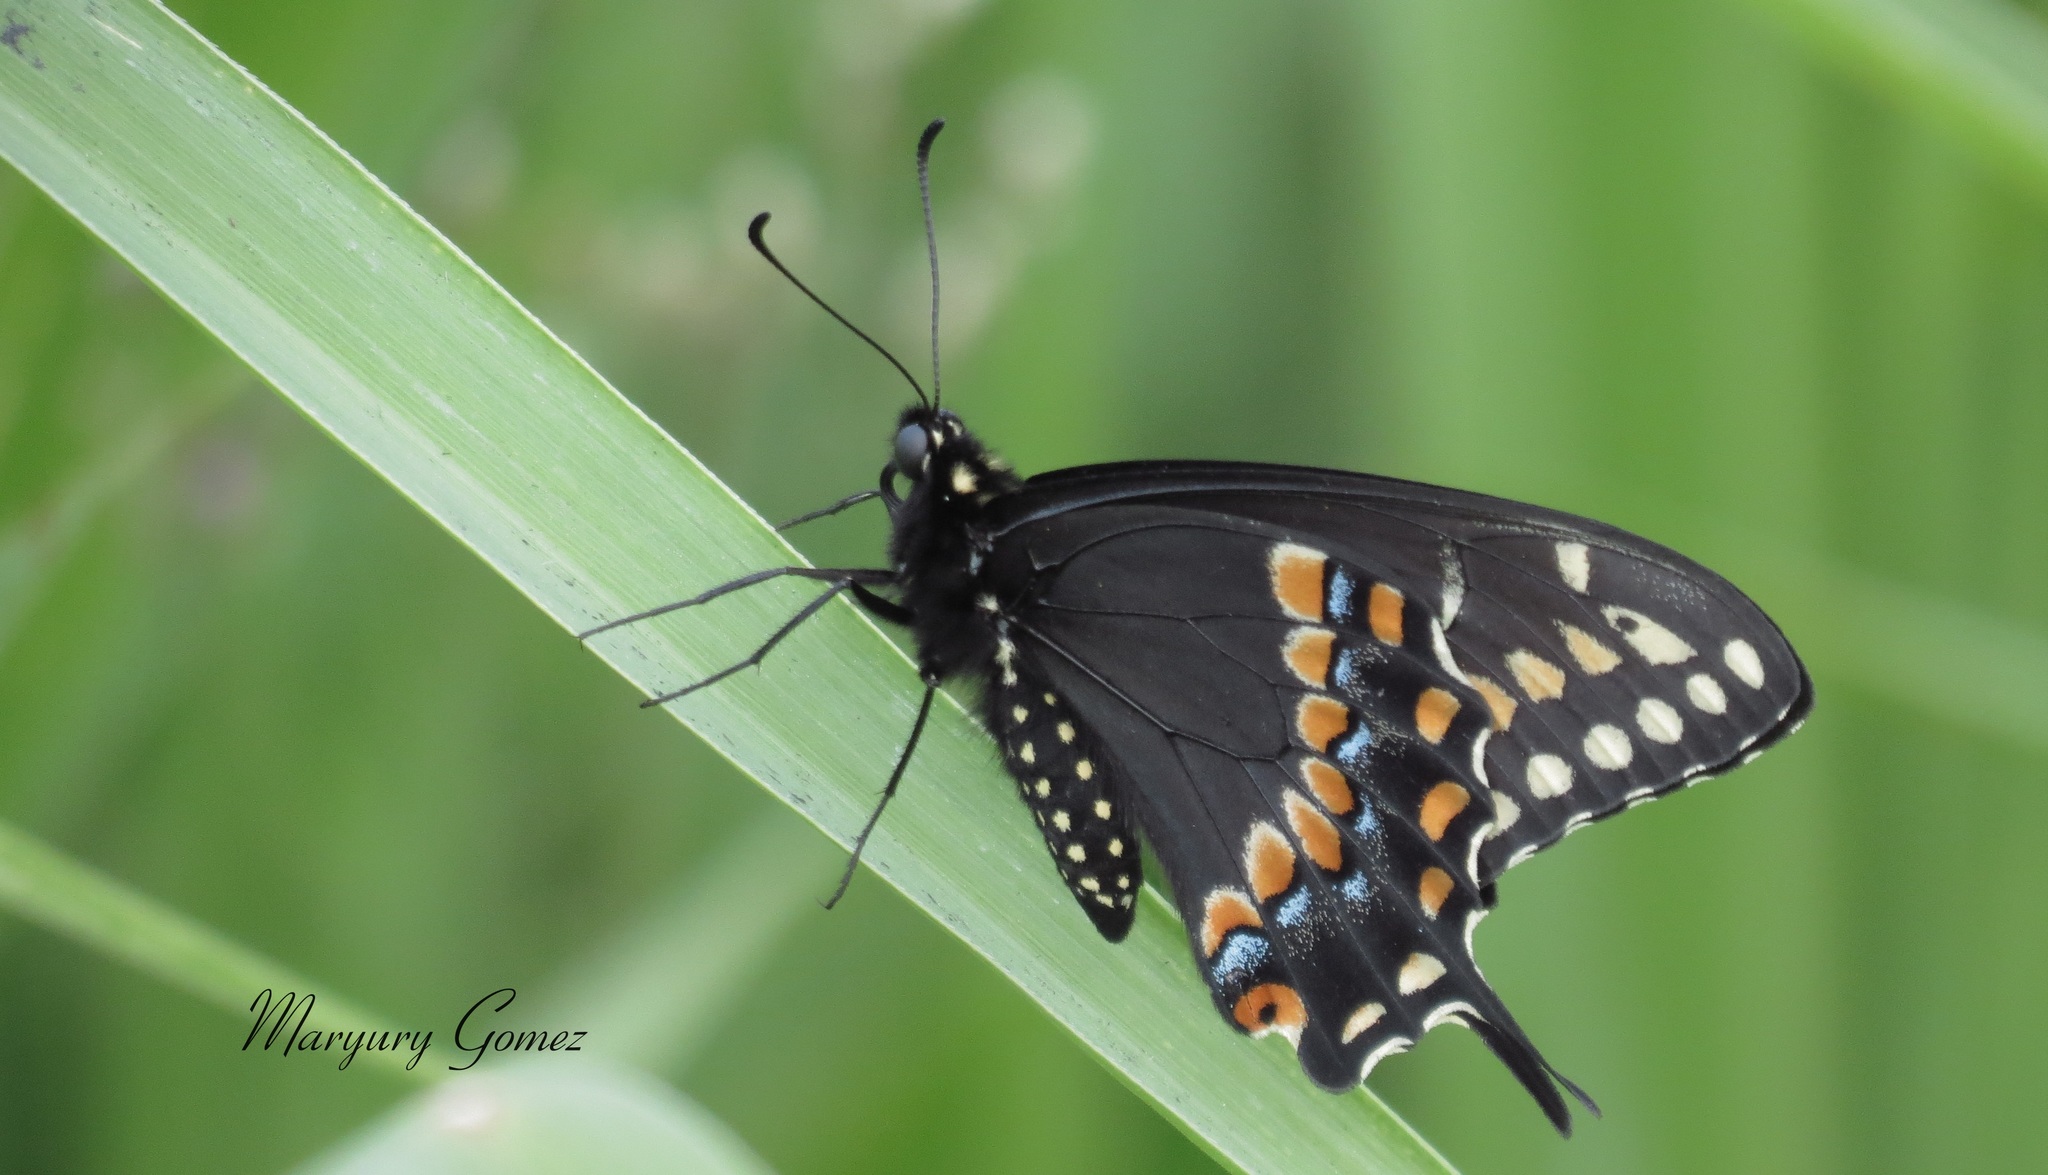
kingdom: Animalia
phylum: Arthropoda
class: Insecta
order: Lepidoptera
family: Papilionidae
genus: Papilio
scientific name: Papilio polyxenes
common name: Black swallowtail
